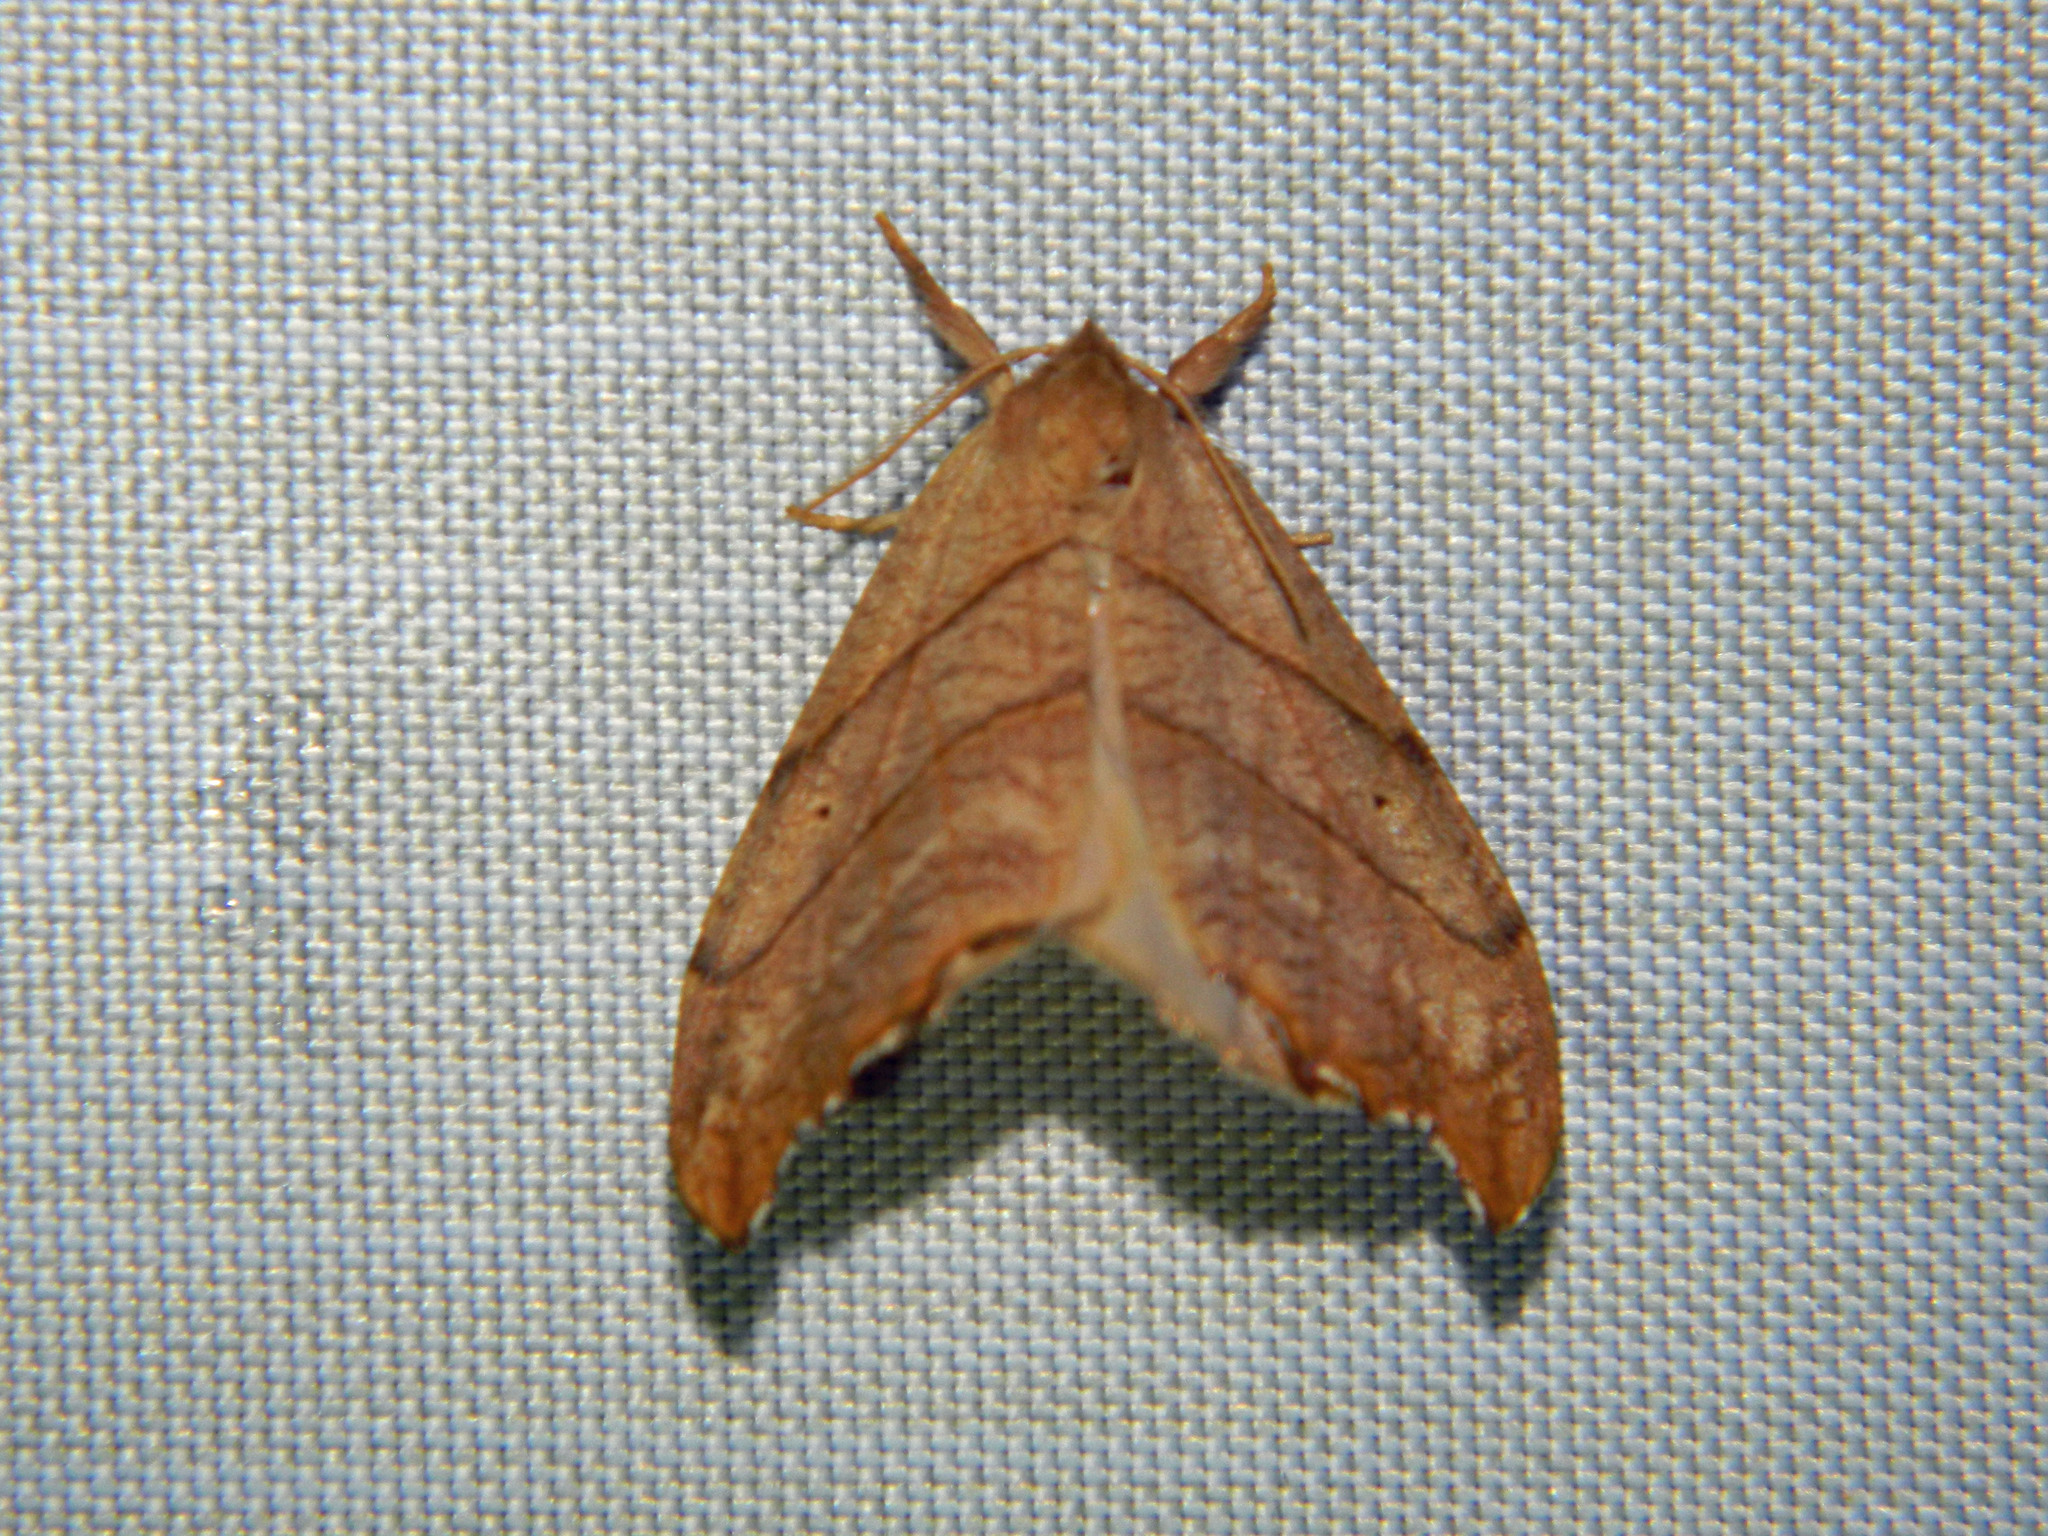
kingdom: Animalia
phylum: Arthropoda
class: Insecta
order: Lepidoptera
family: Drepanidae
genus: Falcaria
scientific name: Falcaria bilineata
